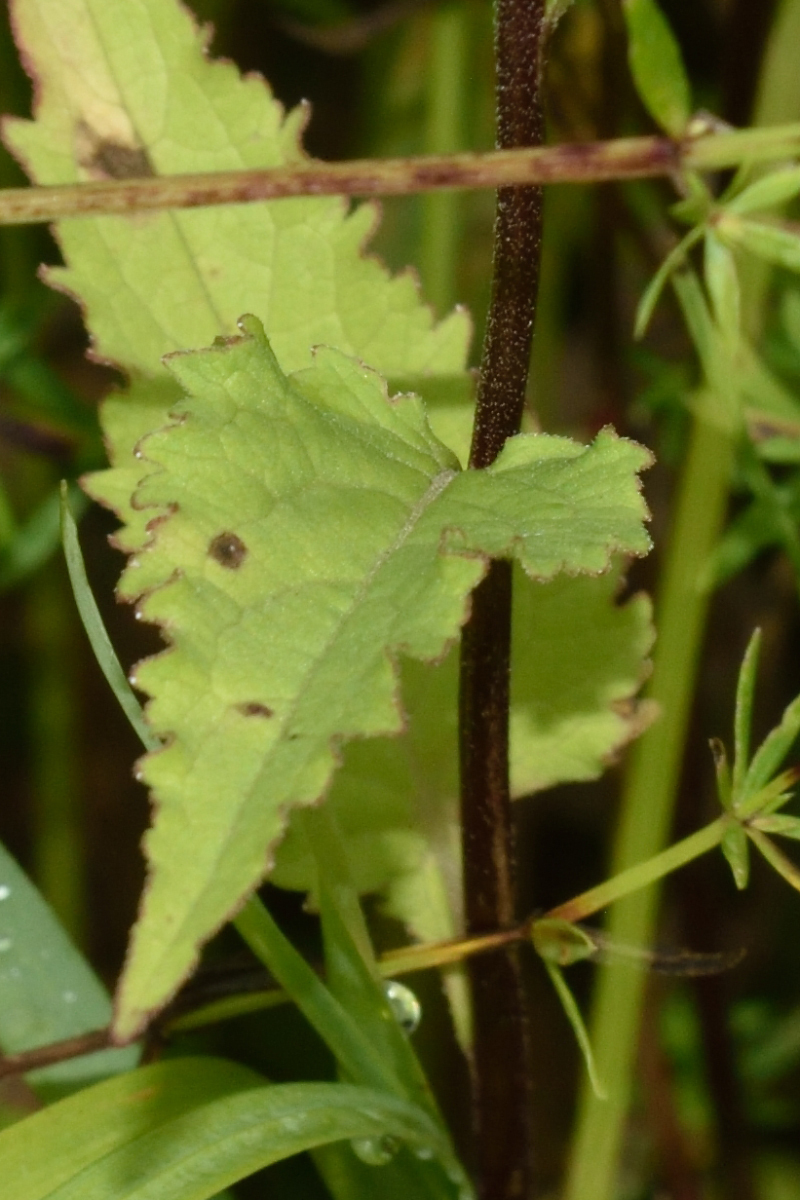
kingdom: Plantae
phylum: Tracheophyta
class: Magnoliopsida
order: Asterales
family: Campanulaceae
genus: Campanula
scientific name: Campanula rapunculoides
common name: Creeping bellflower
